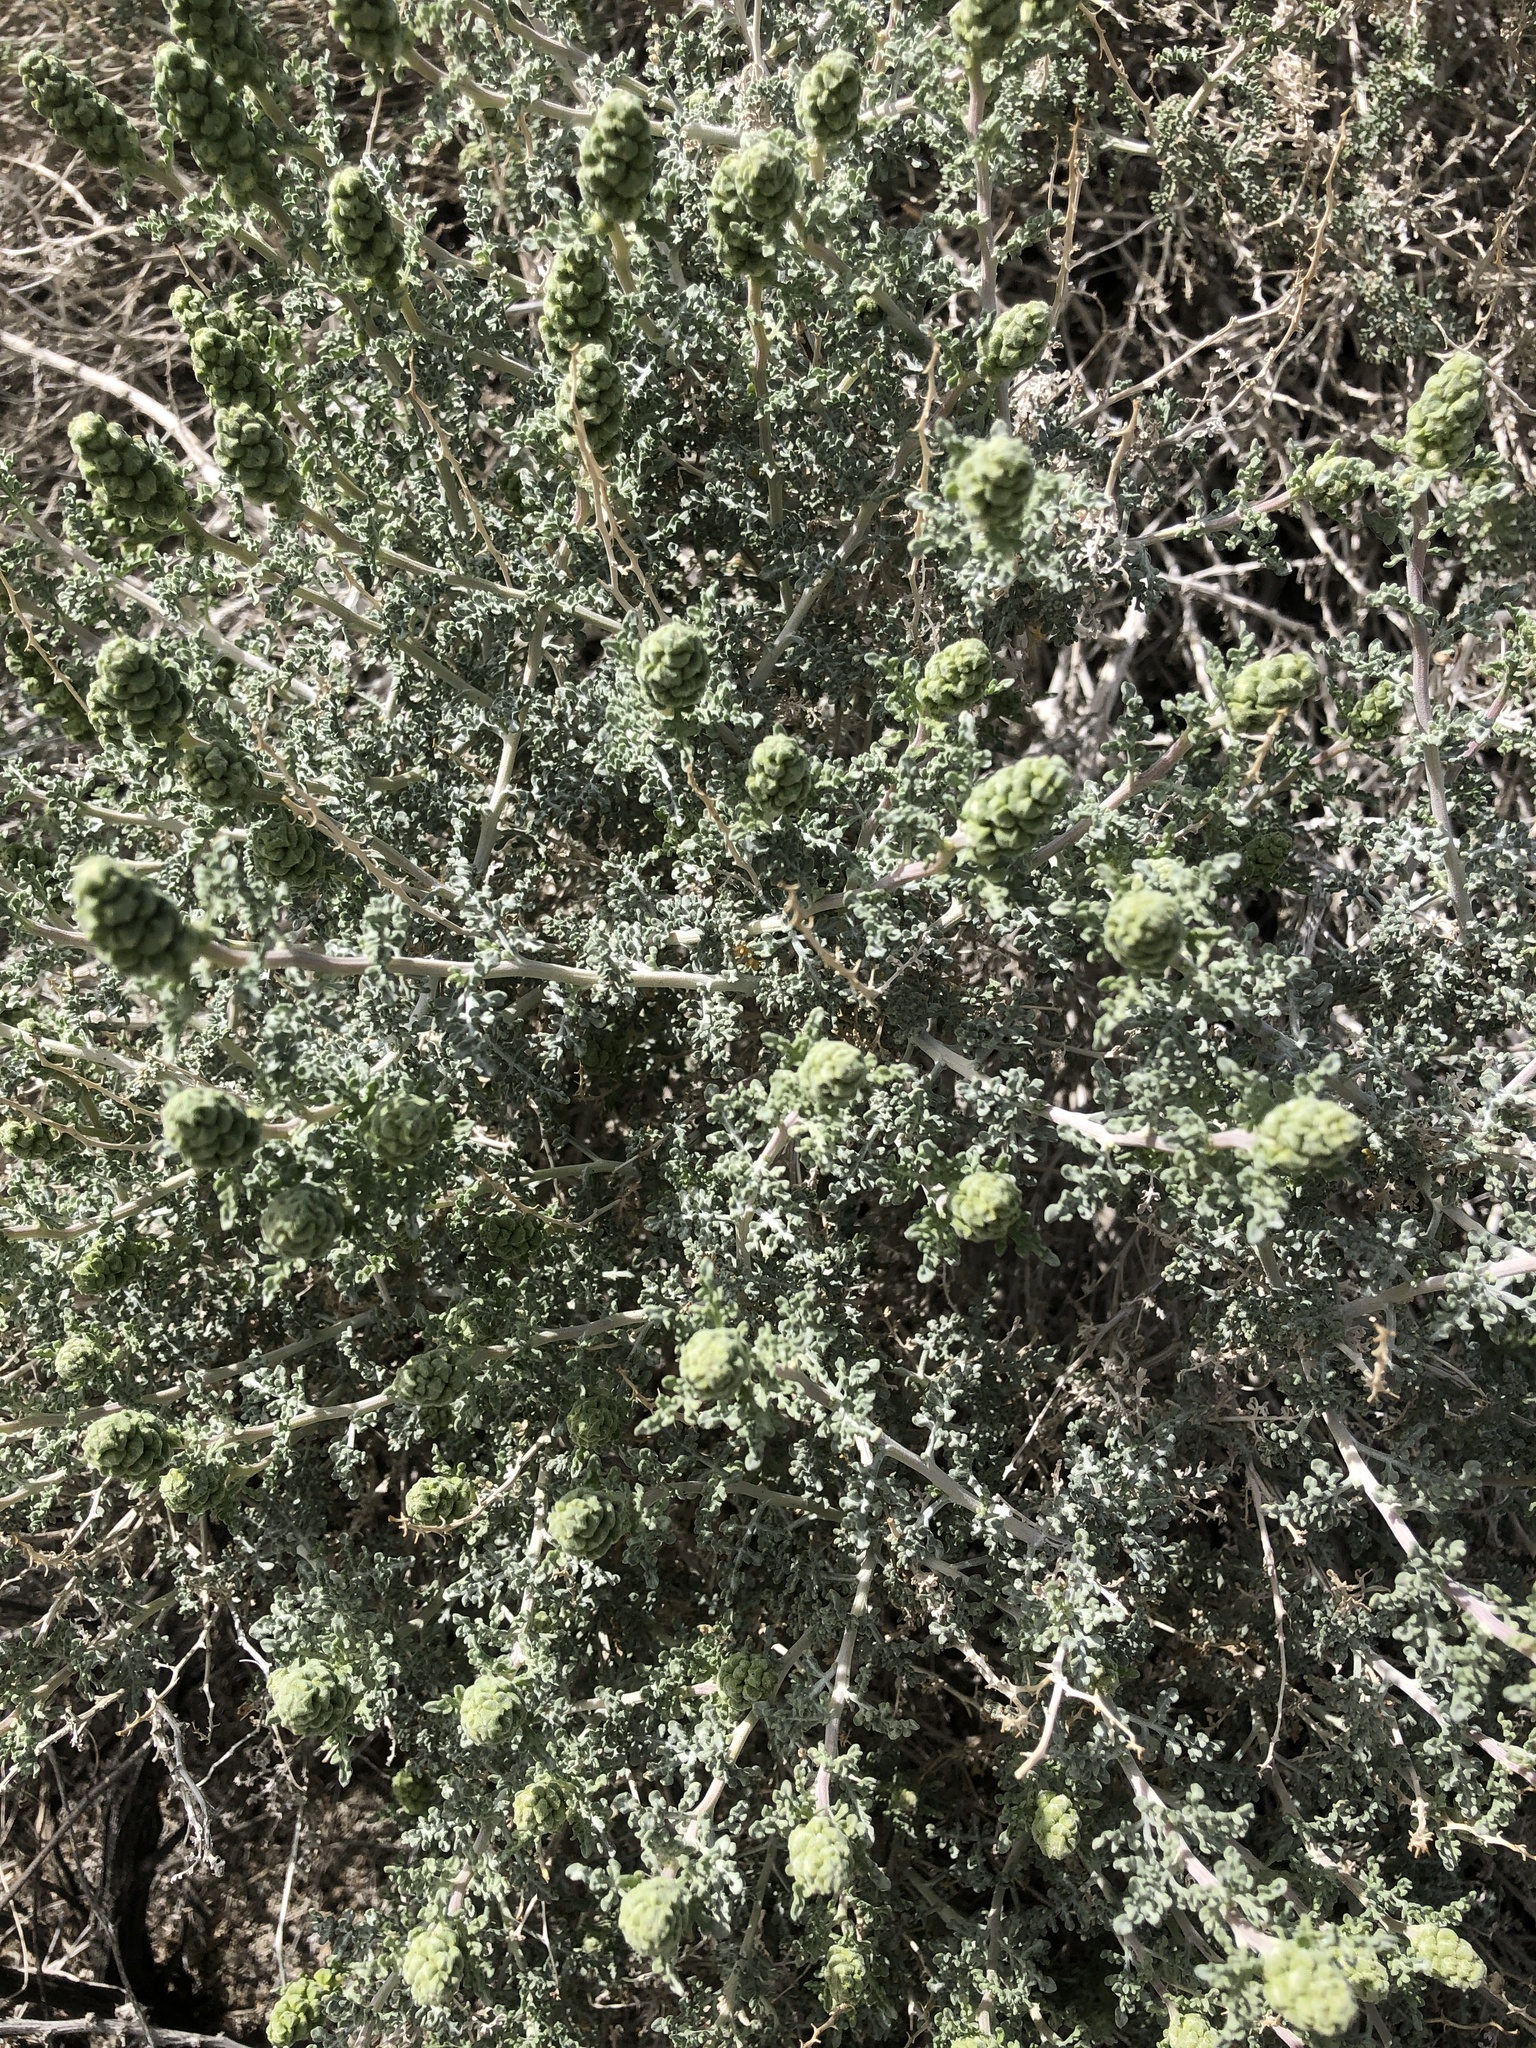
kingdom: Plantae
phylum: Tracheophyta
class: Magnoliopsida
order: Asterales
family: Asteraceae
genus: Ambrosia
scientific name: Ambrosia dumosa
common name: Bur-sage
